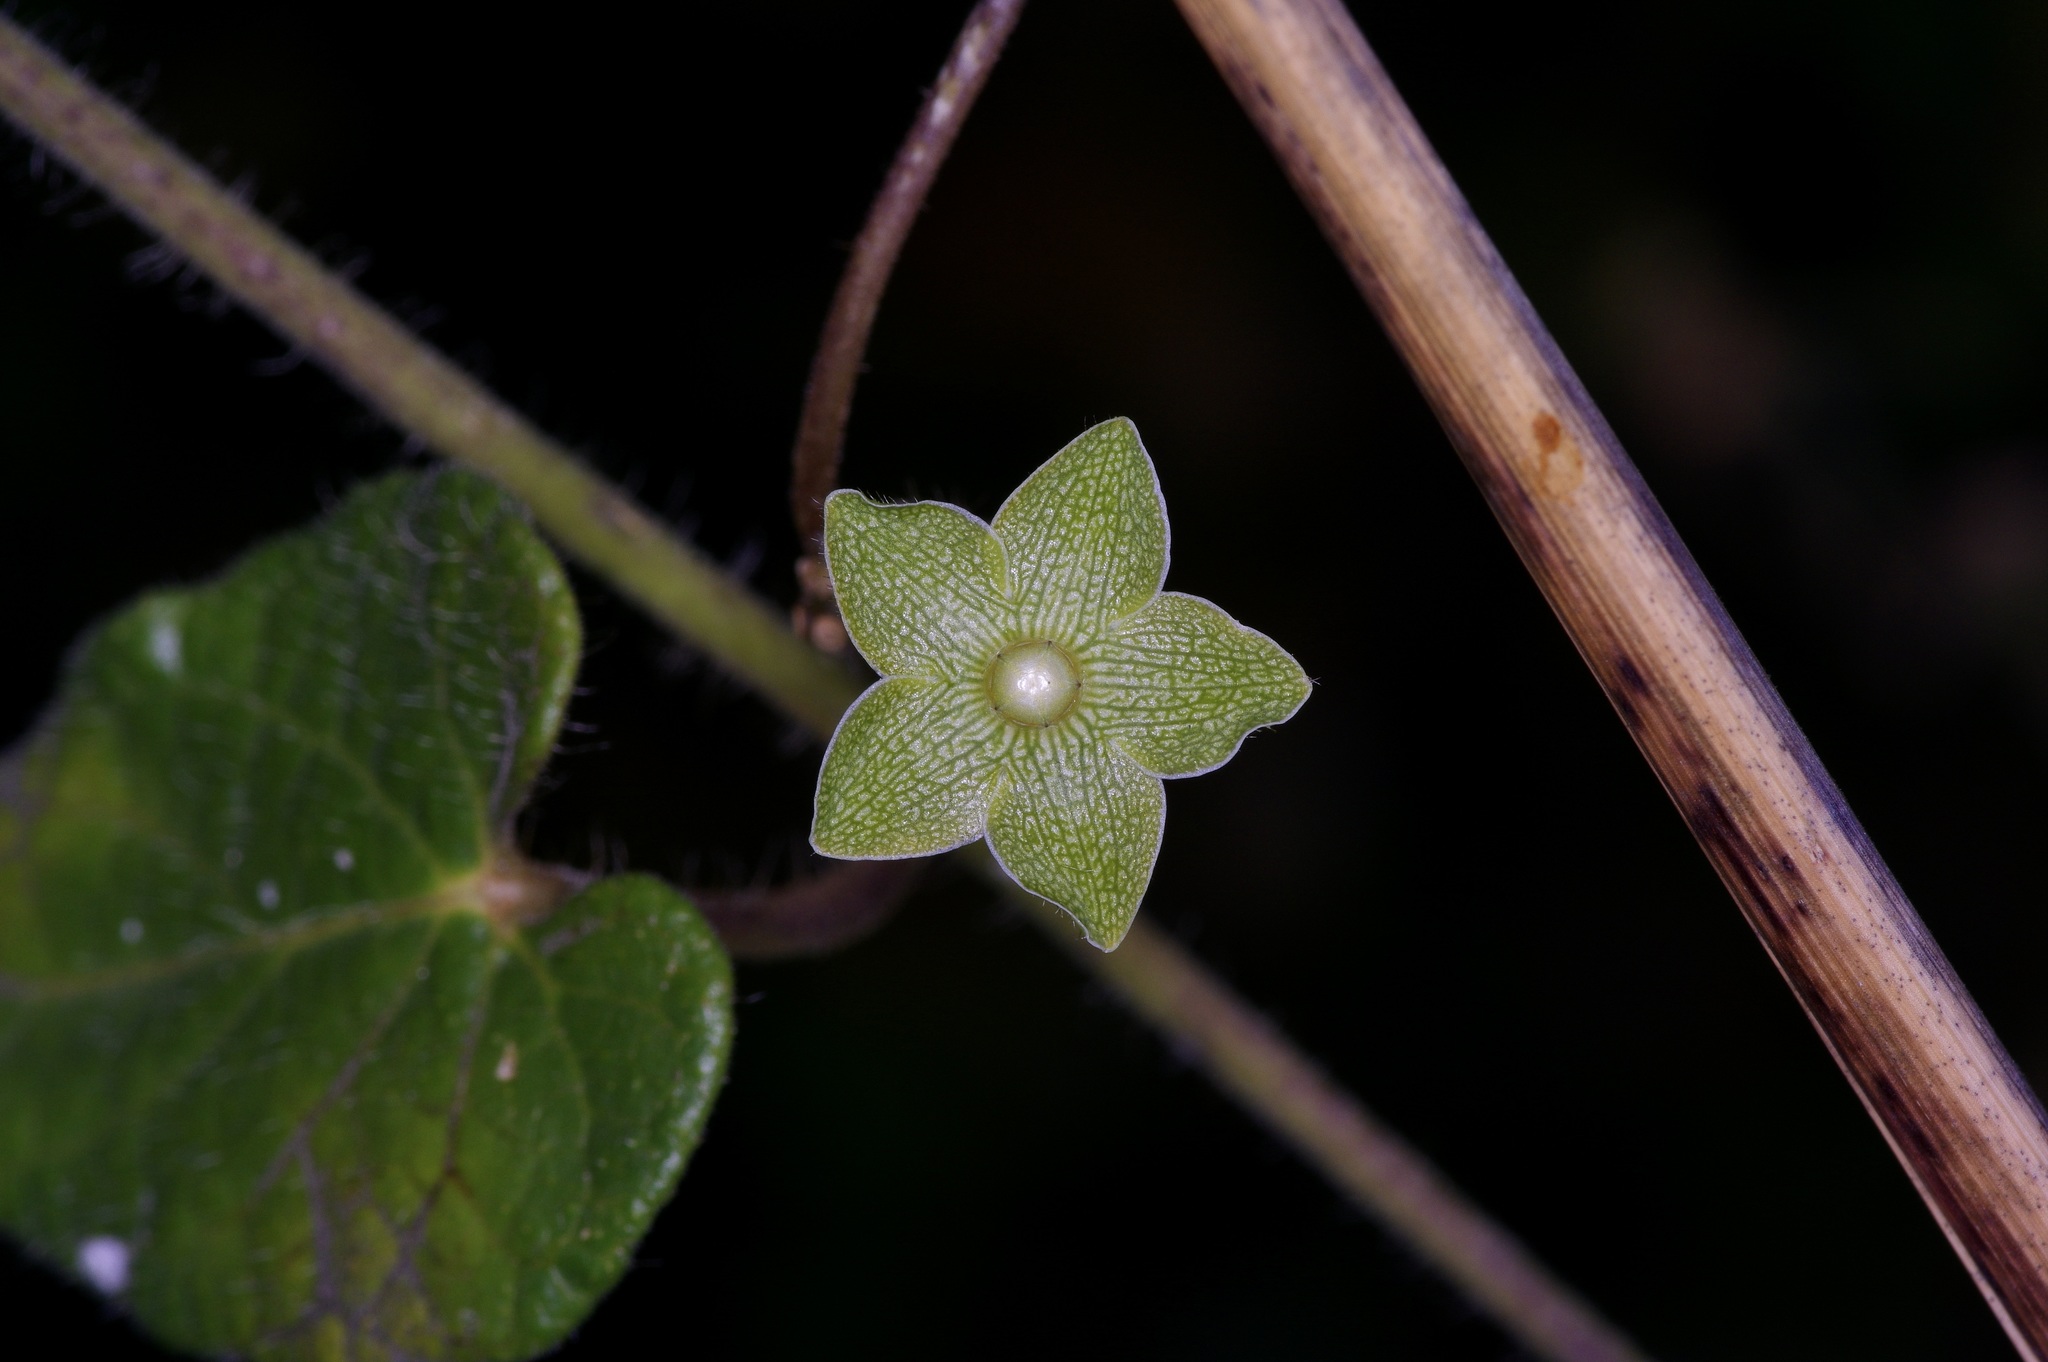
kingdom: Plantae
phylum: Tracheophyta
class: Magnoliopsida
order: Gentianales
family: Apocynaceae
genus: Dictyanthus
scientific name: Dictyanthus reticulatus
